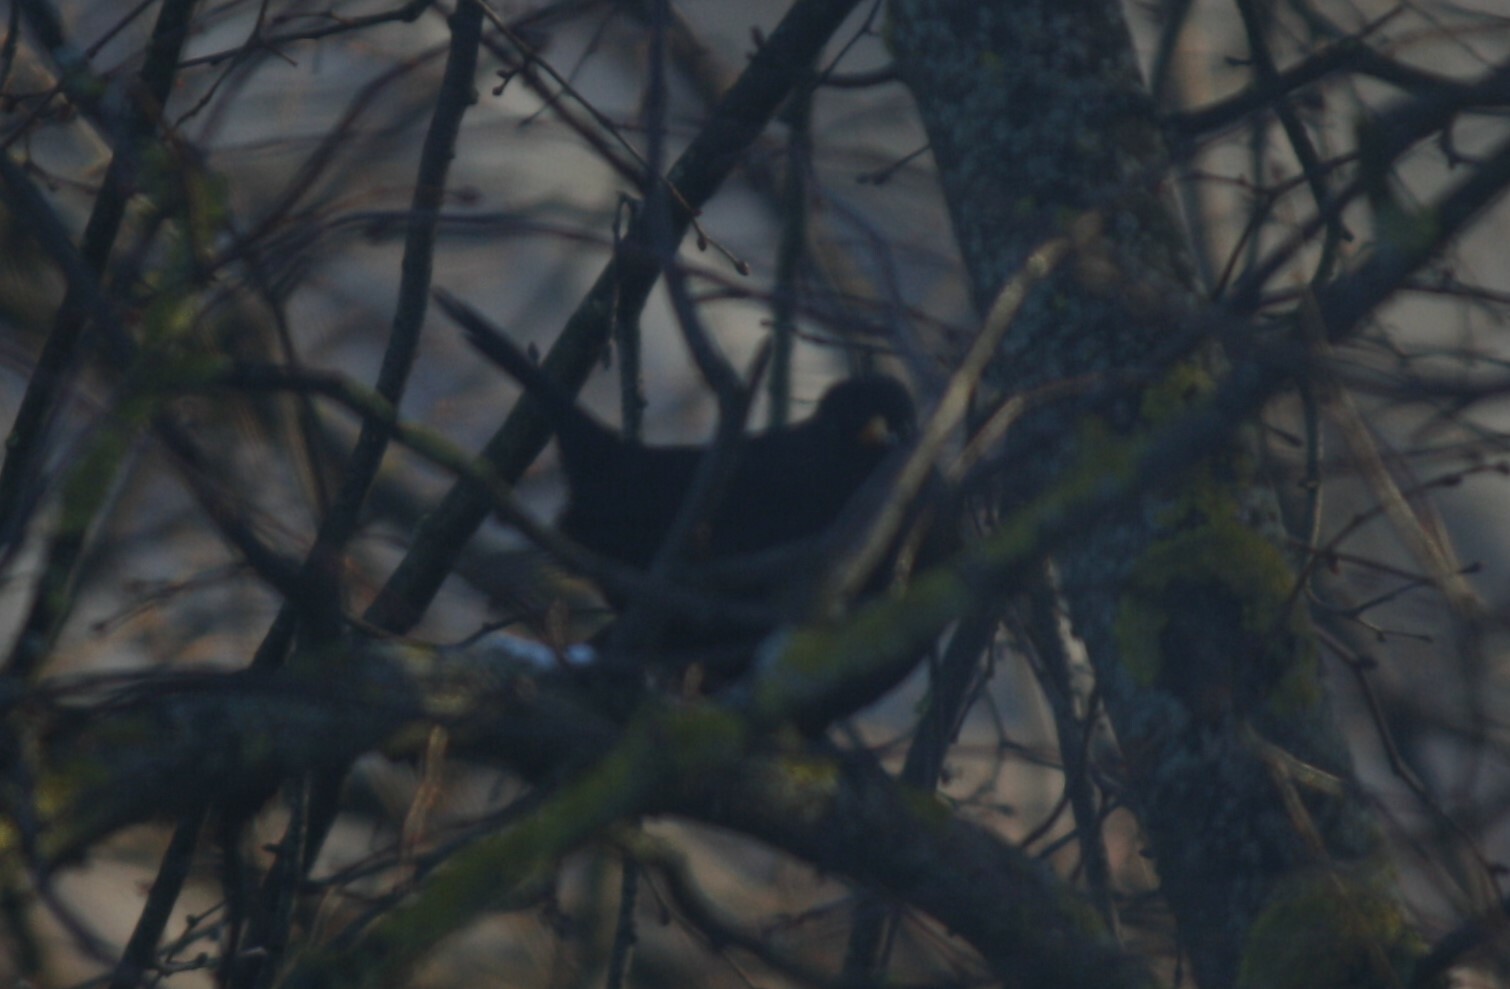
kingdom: Animalia
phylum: Chordata
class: Aves
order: Passeriformes
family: Turdidae
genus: Turdus
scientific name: Turdus merula
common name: Common blackbird
